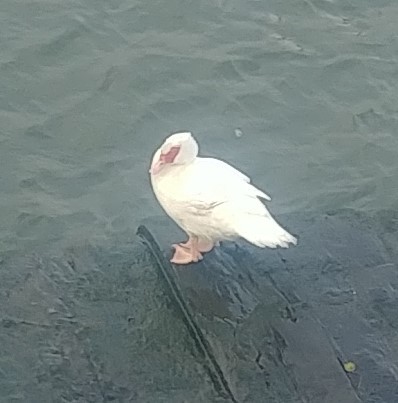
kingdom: Animalia
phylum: Chordata
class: Aves
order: Anseriformes
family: Anatidae
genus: Cairina
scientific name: Cairina moschata
